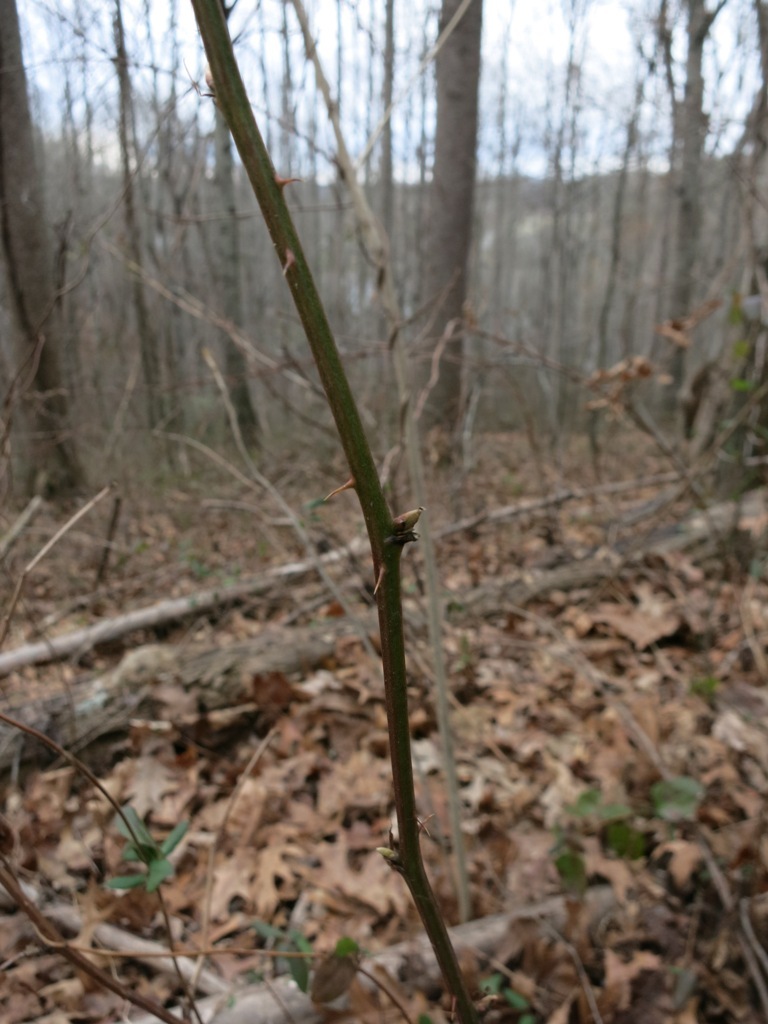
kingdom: Animalia
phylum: Arthropoda
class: Insecta
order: Hymenoptera
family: Cynipidae
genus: Diastrophus
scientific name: Diastrophus
